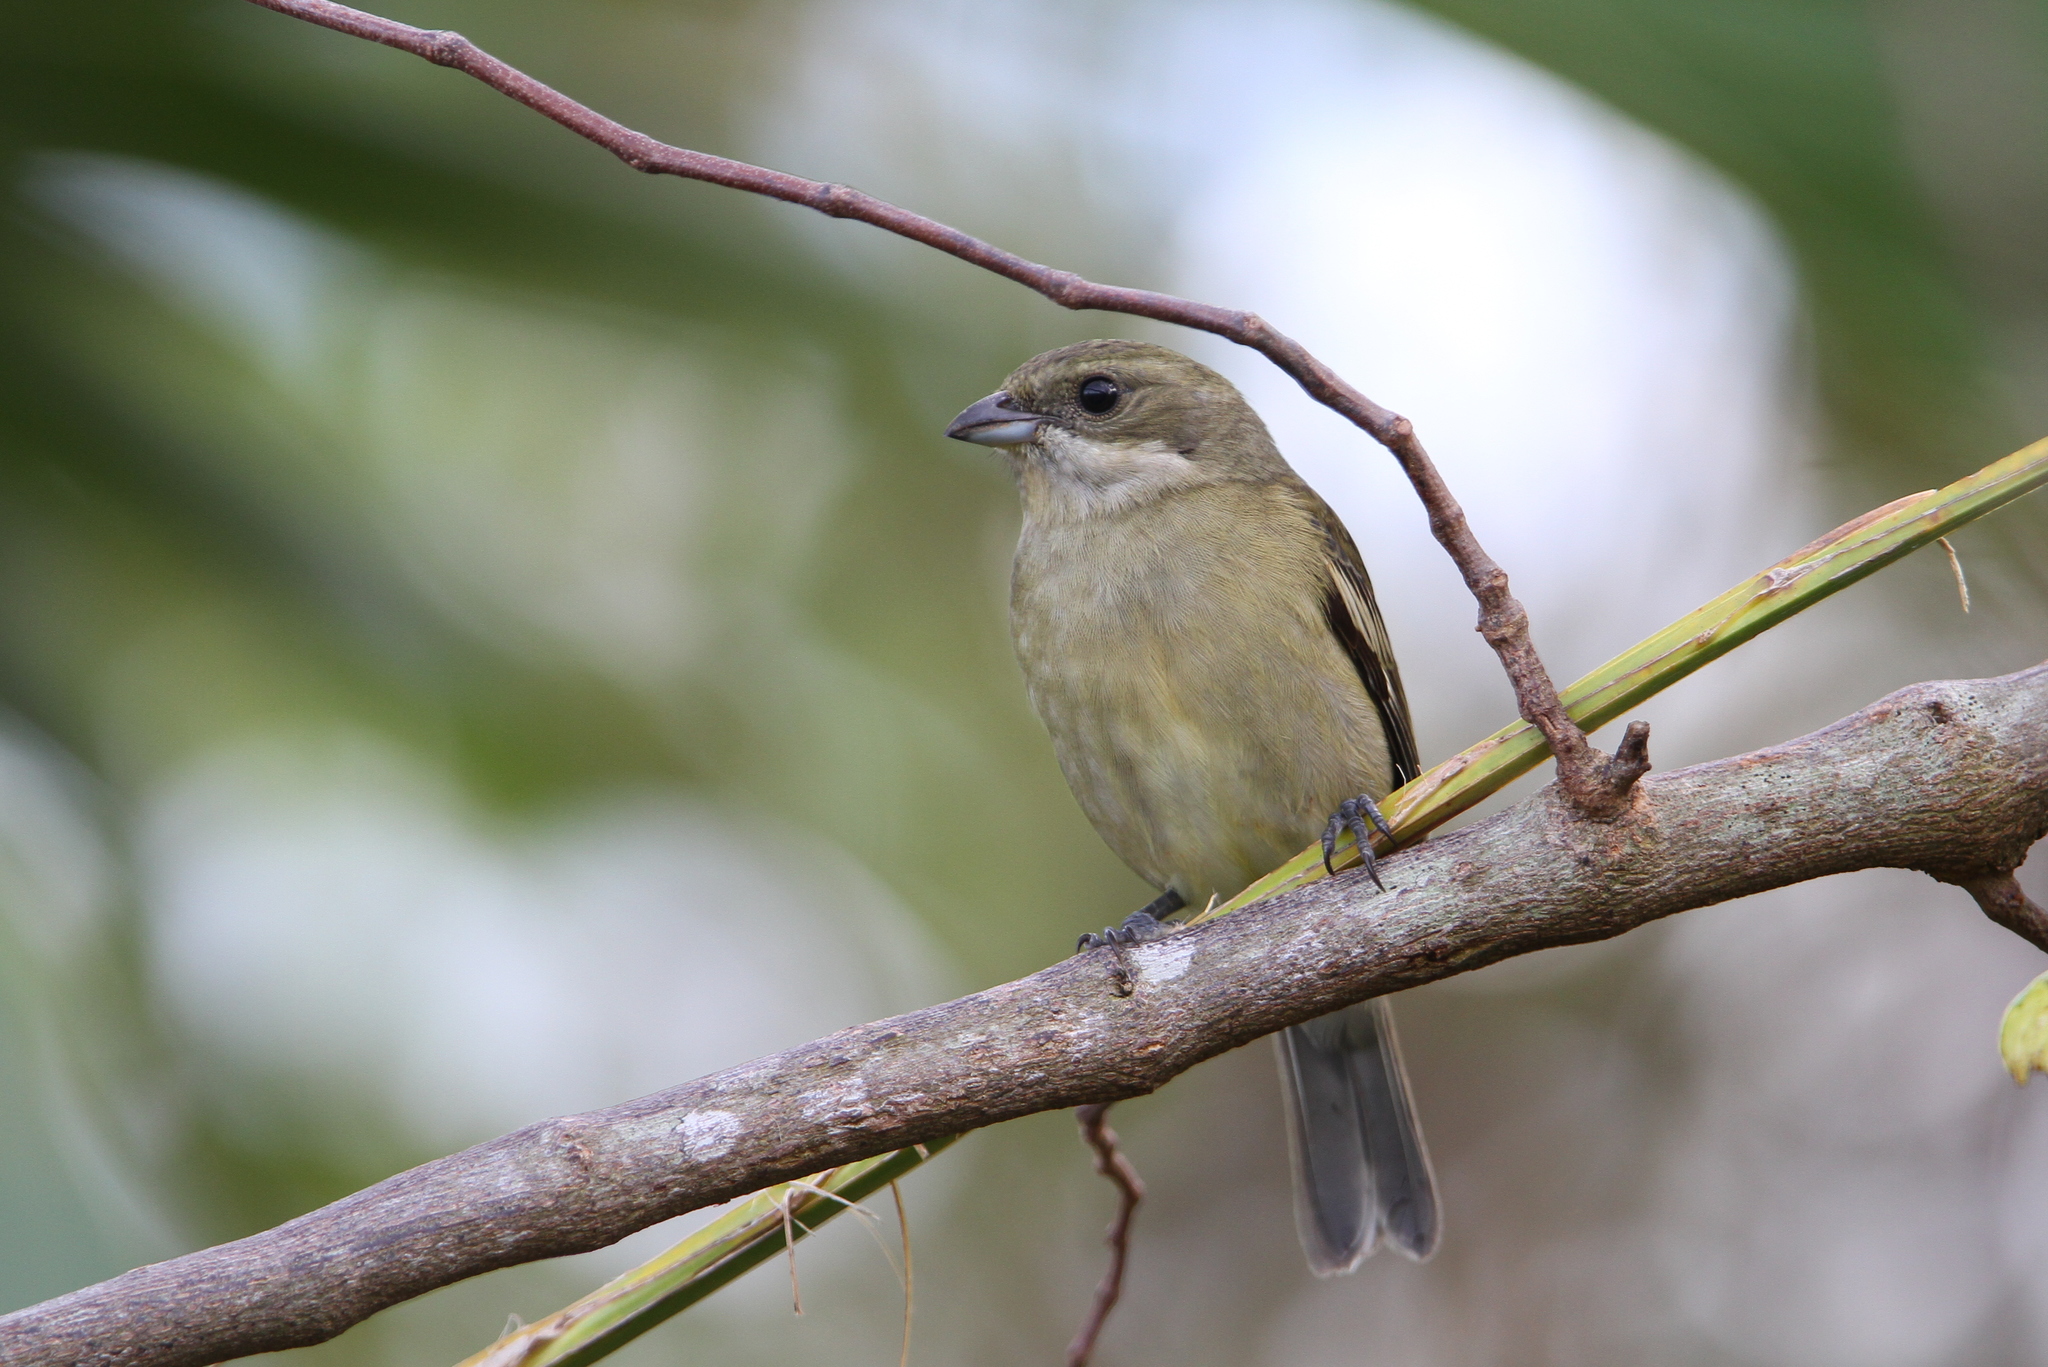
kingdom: Animalia
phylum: Chordata
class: Aves
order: Passeriformes
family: Spindalidae
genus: Spindalis
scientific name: Spindalis zena
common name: Western spindalis
